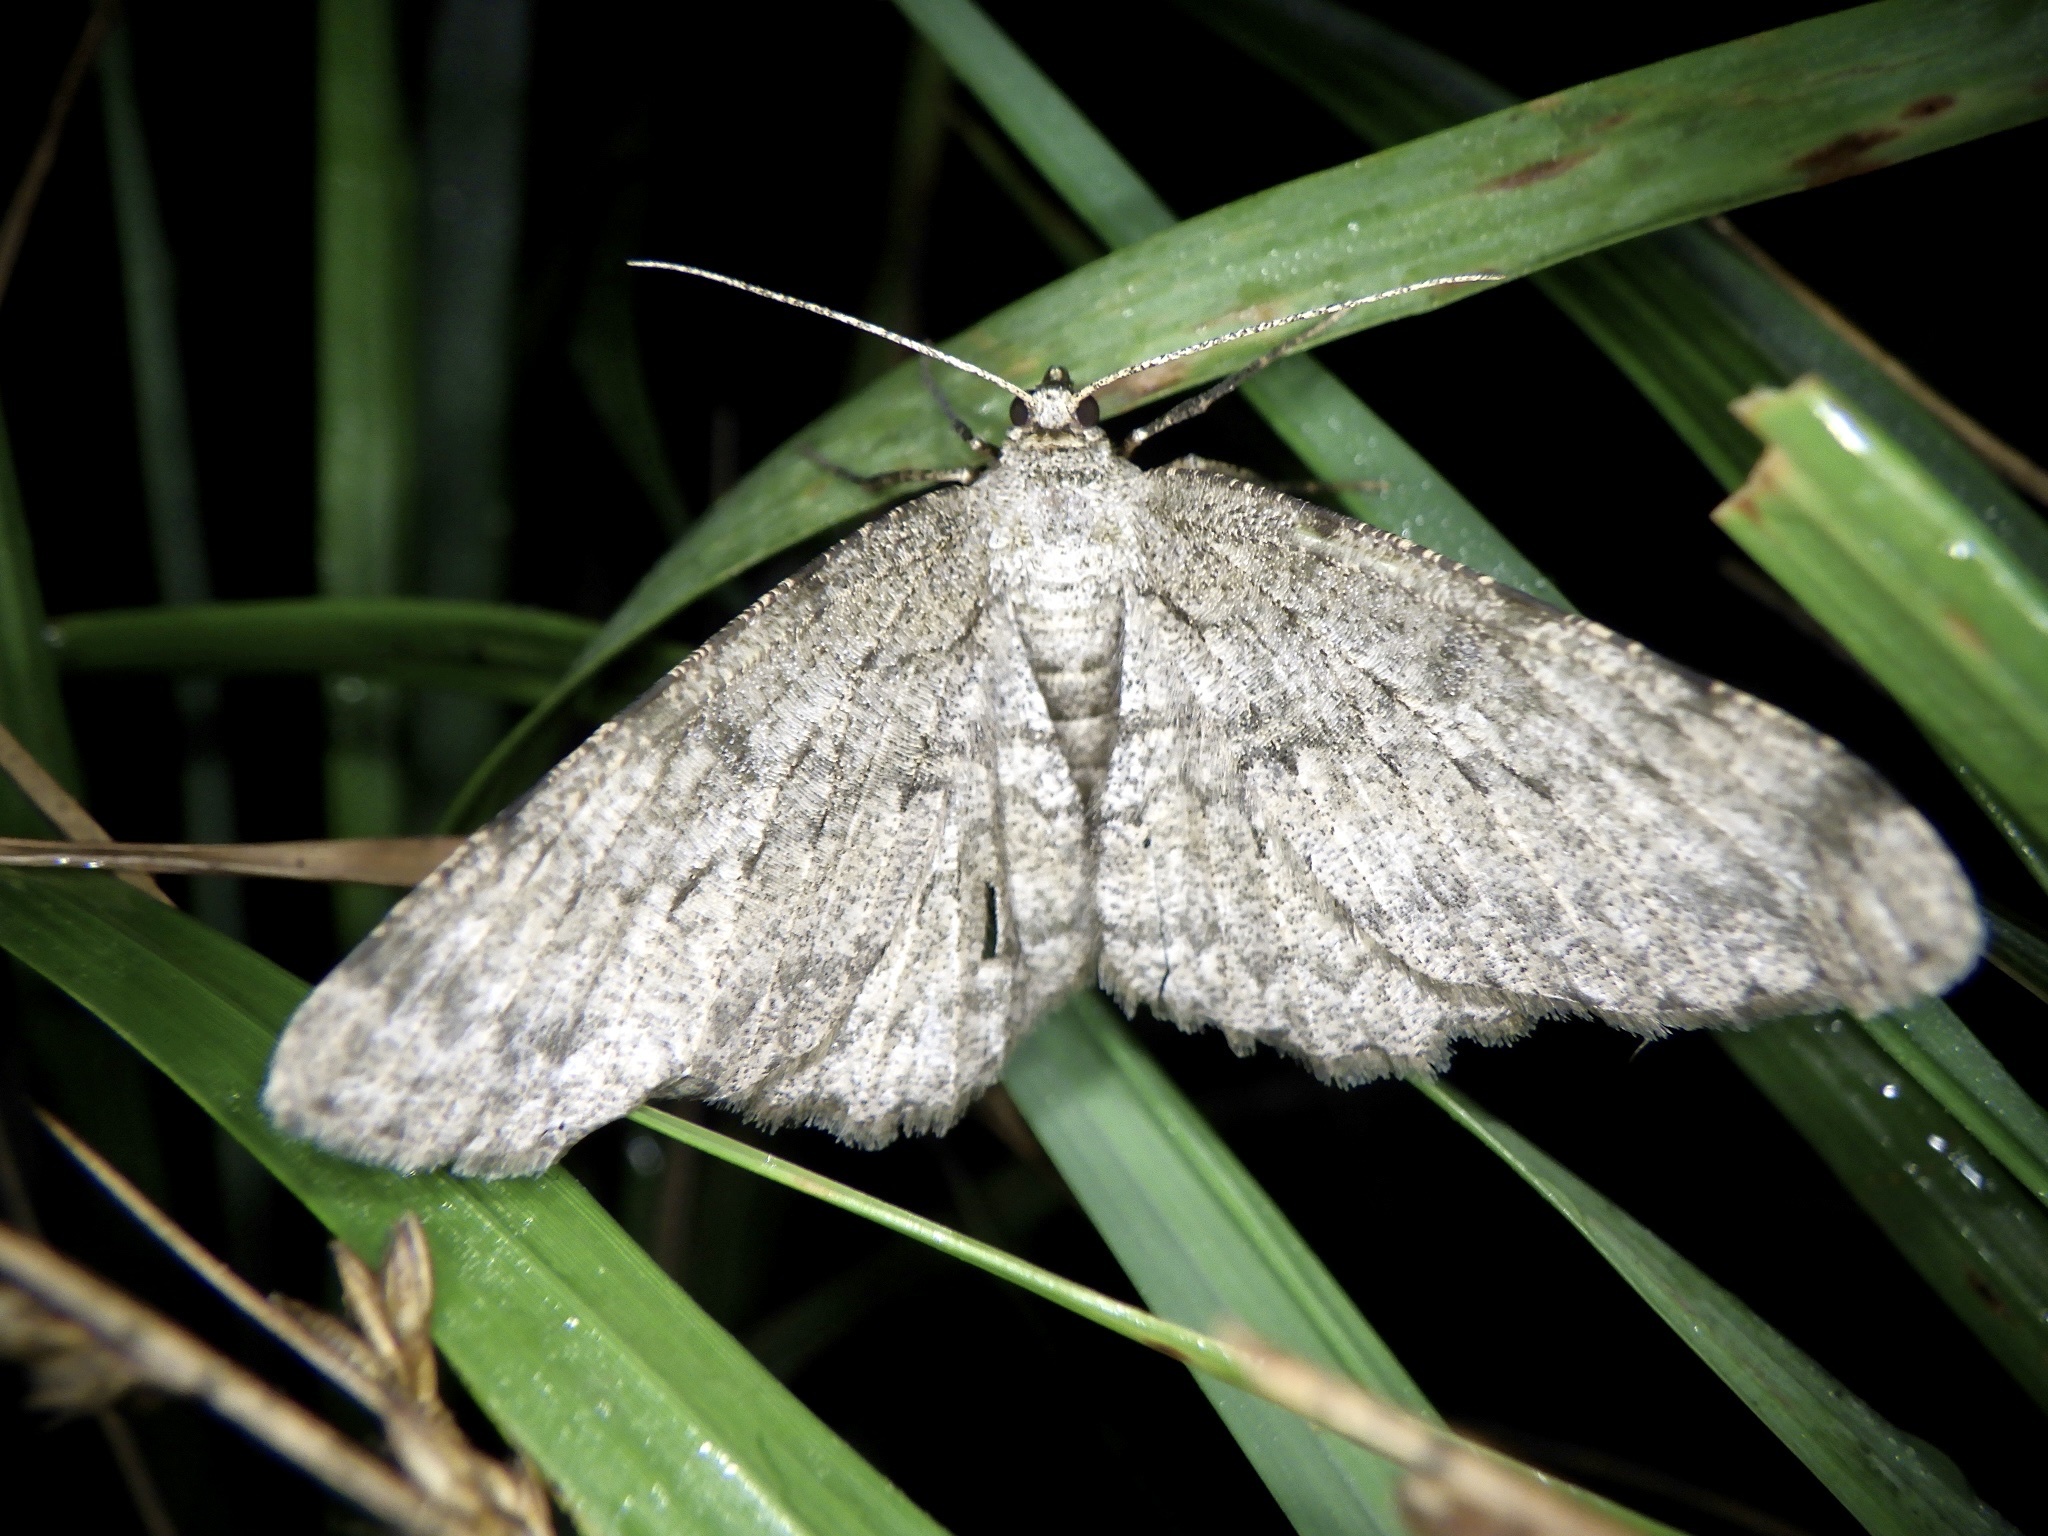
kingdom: Animalia
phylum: Arthropoda
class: Insecta
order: Lepidoptera
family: Geometridae
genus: Hypomecis
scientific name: Hypomecis punctinalis
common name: Pale oak beauty
